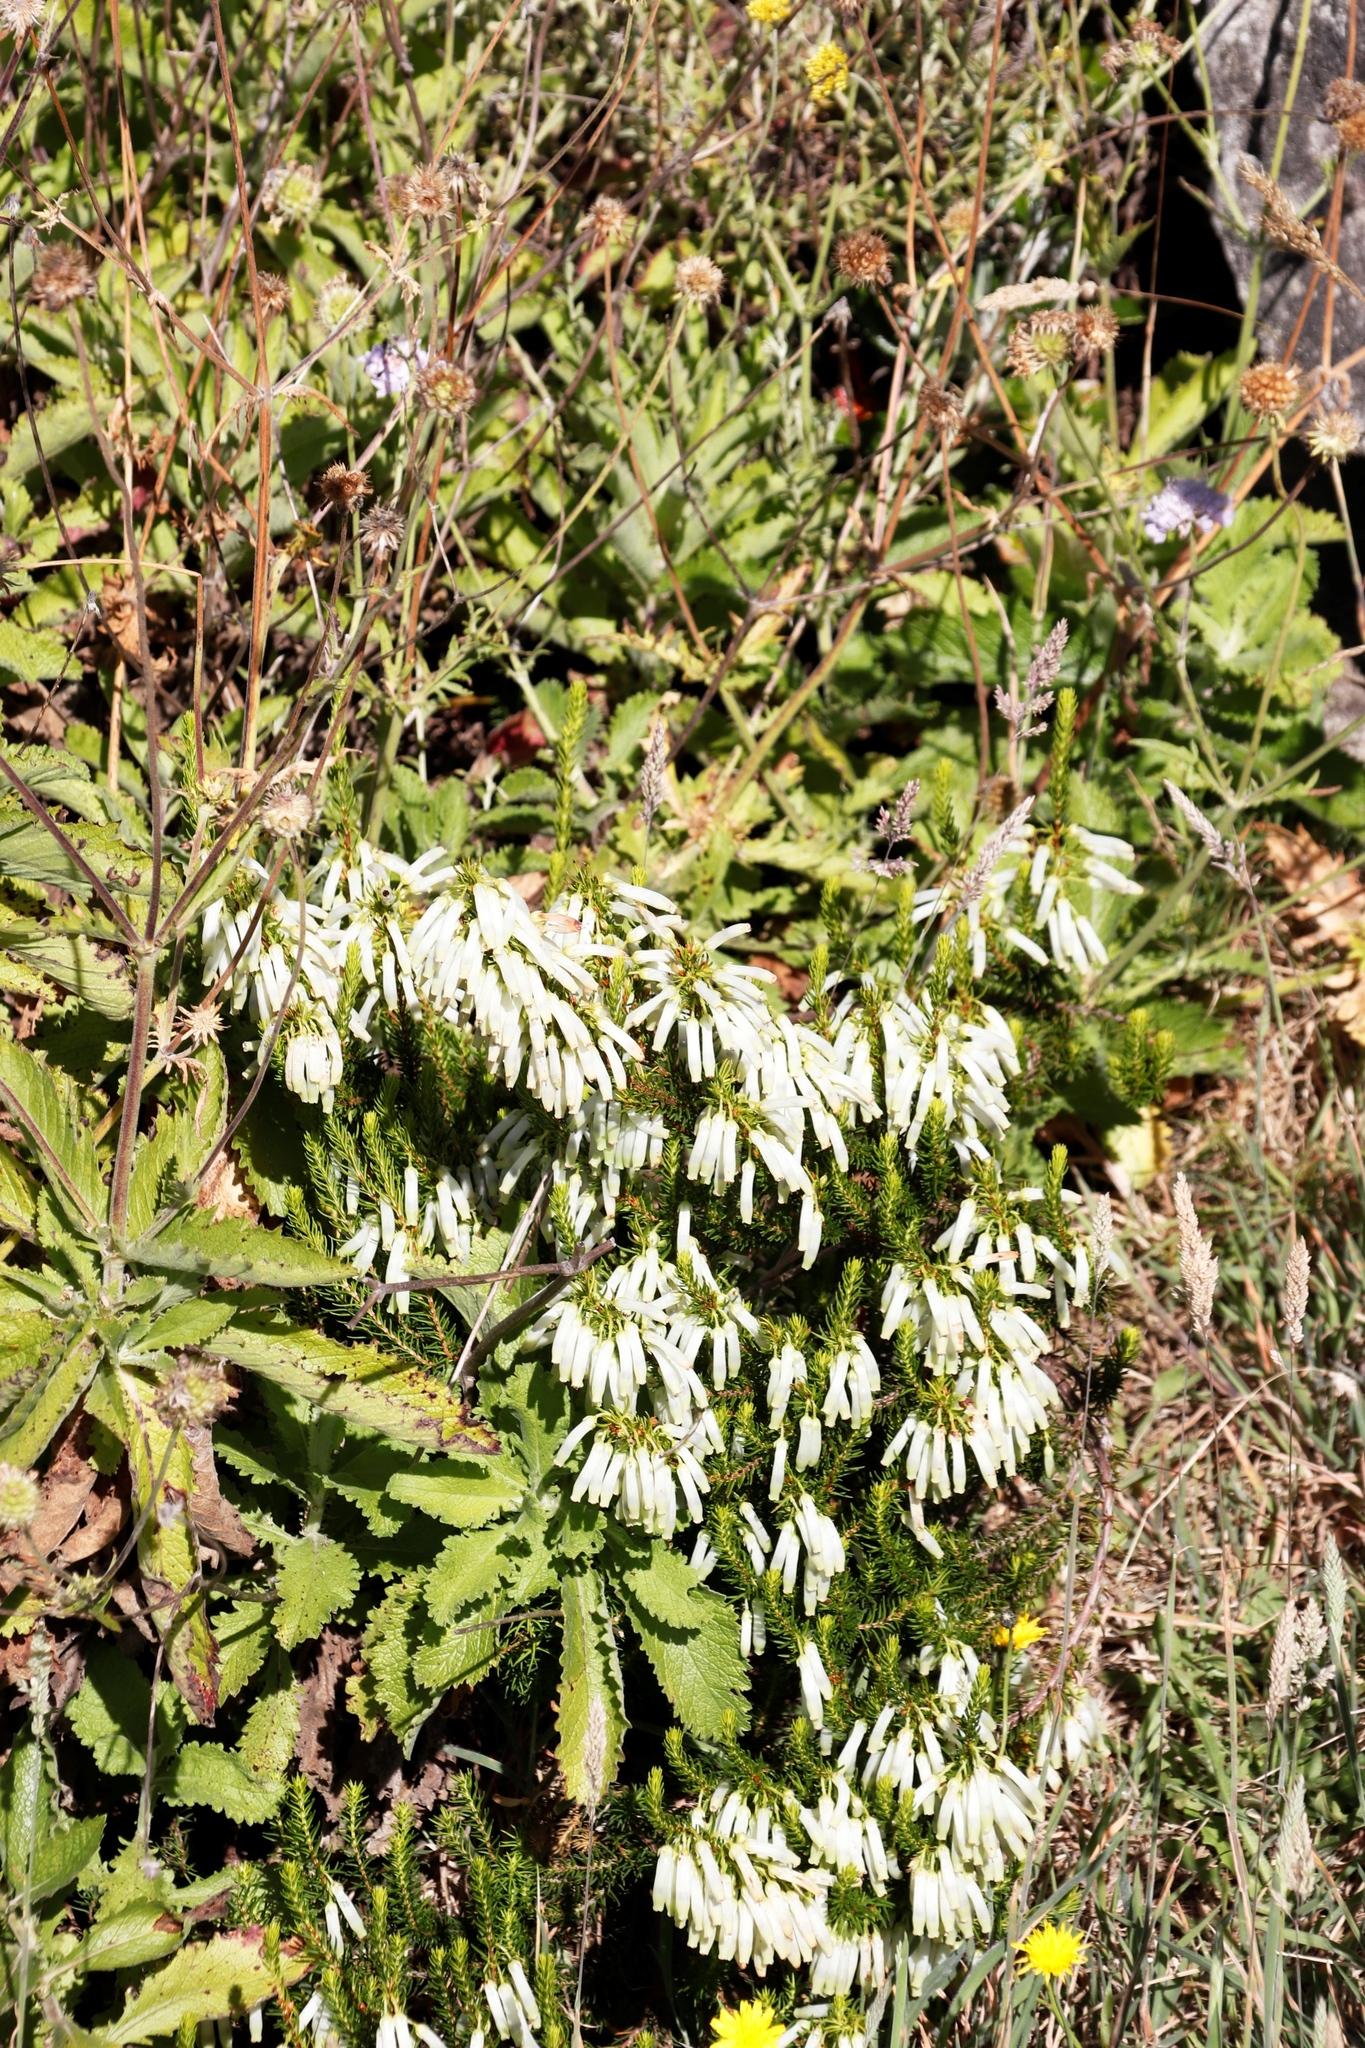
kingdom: Plantae
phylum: Tracheophyta
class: Magnoliopsida
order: Ericales
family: Ericaceae
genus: Erica
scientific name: Erica mammosa
